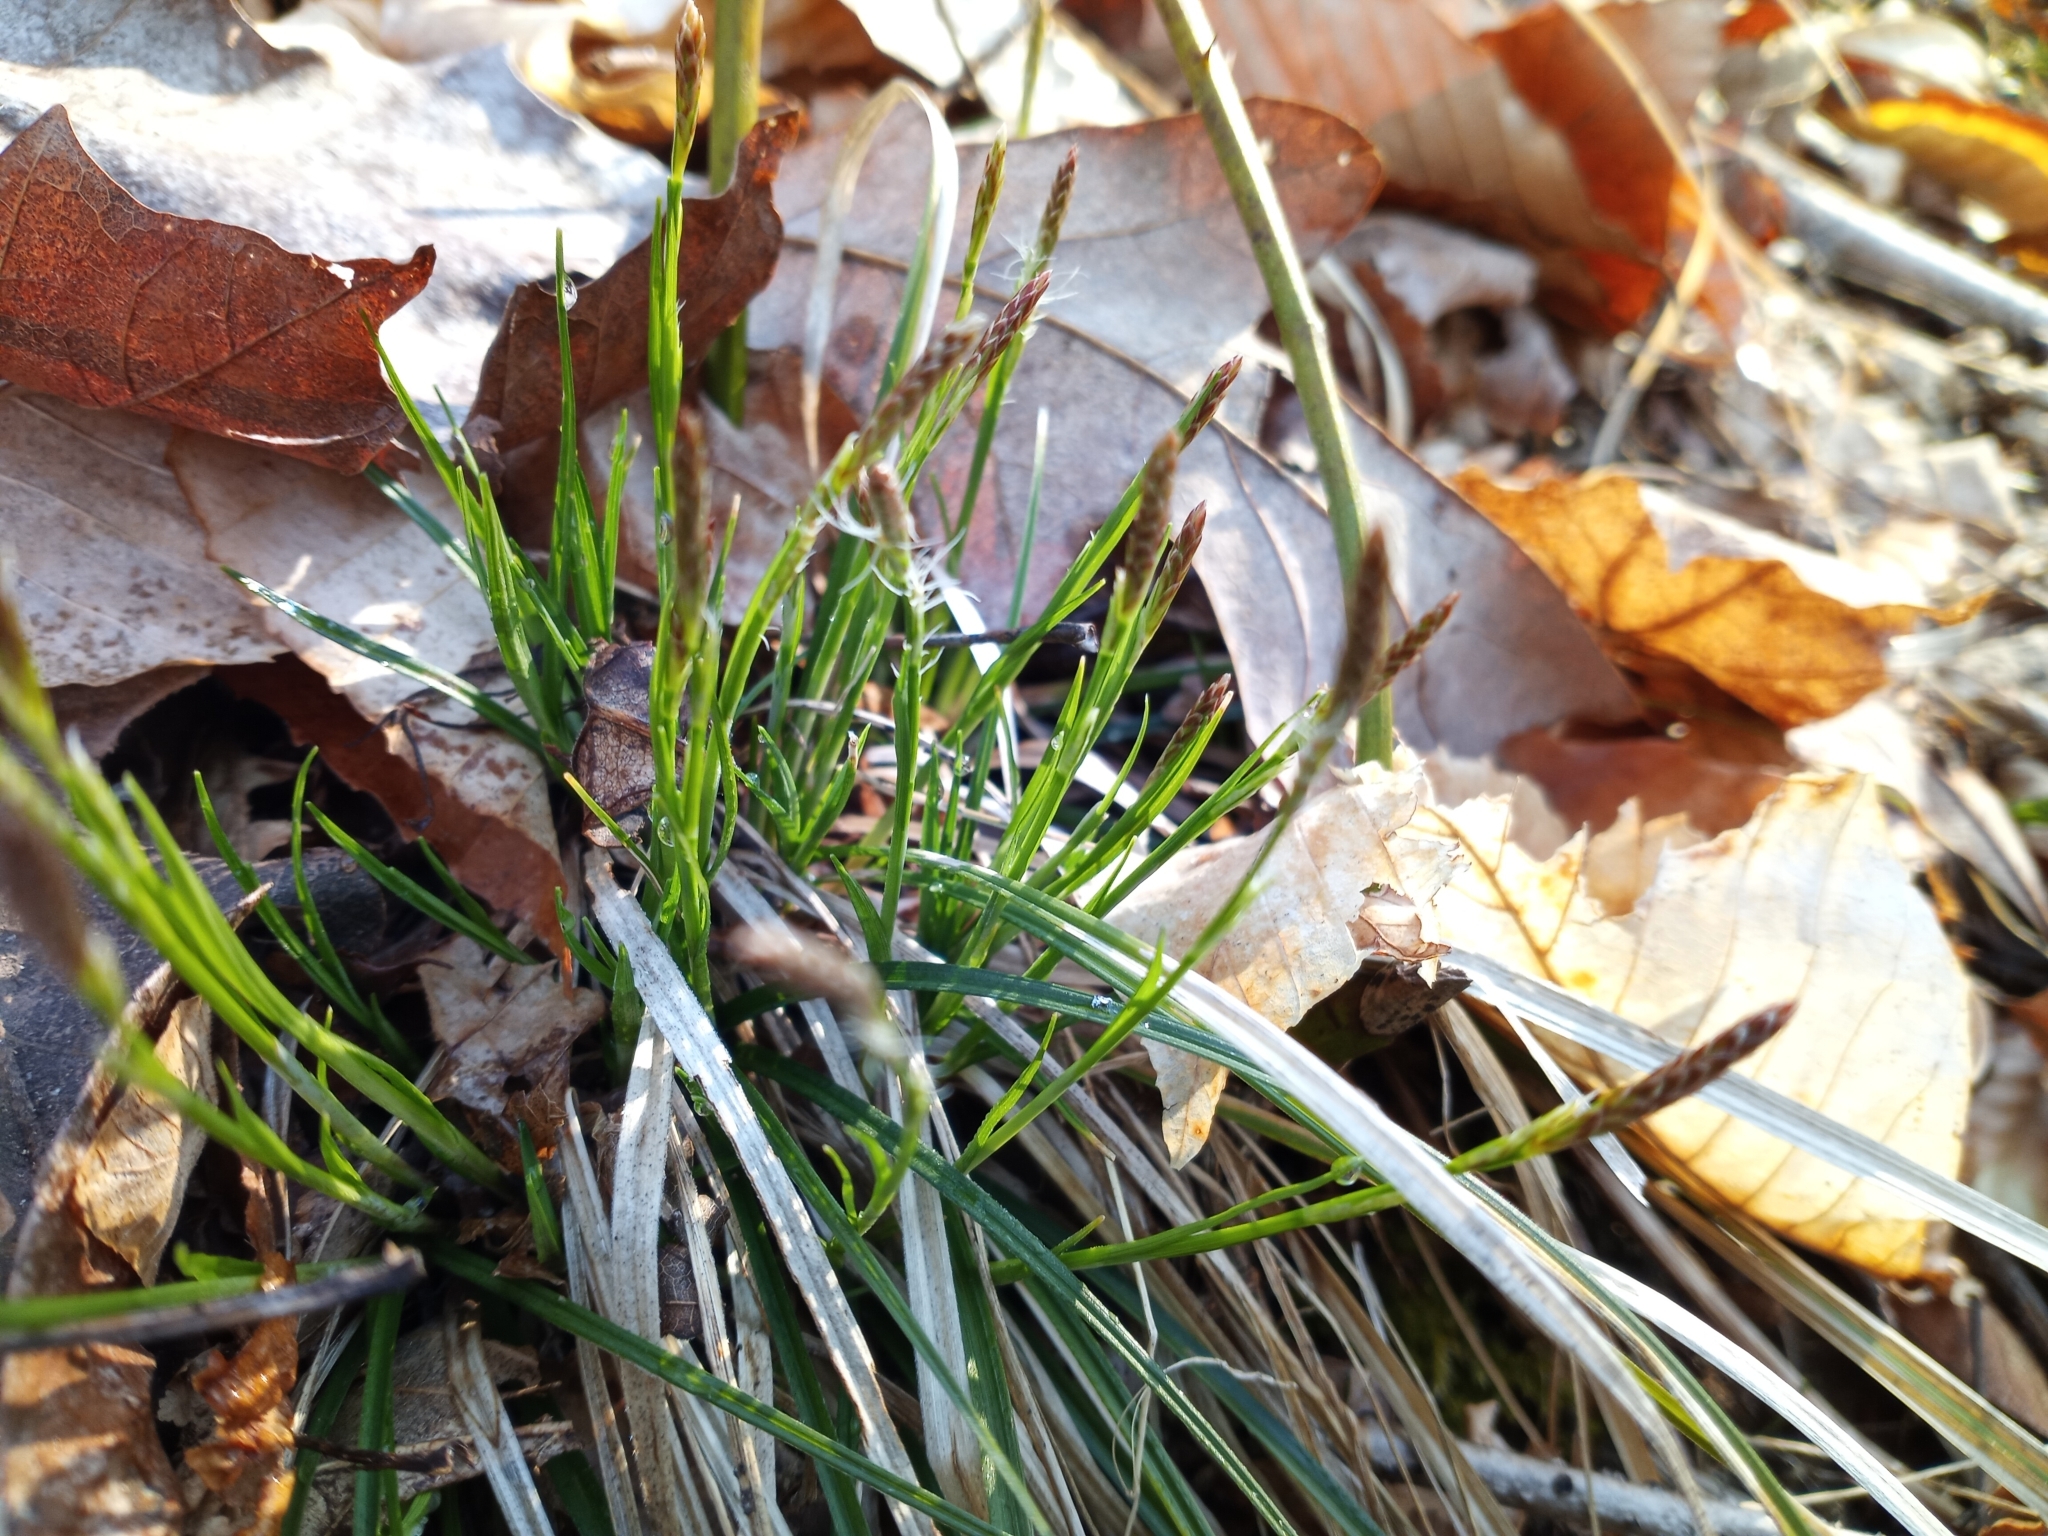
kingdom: Plantae
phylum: Tracheophyta
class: Liliopsida
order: Poales
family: Cyperaceae
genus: Carex
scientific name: Carex pedunculata
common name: Pedunculate sedge
